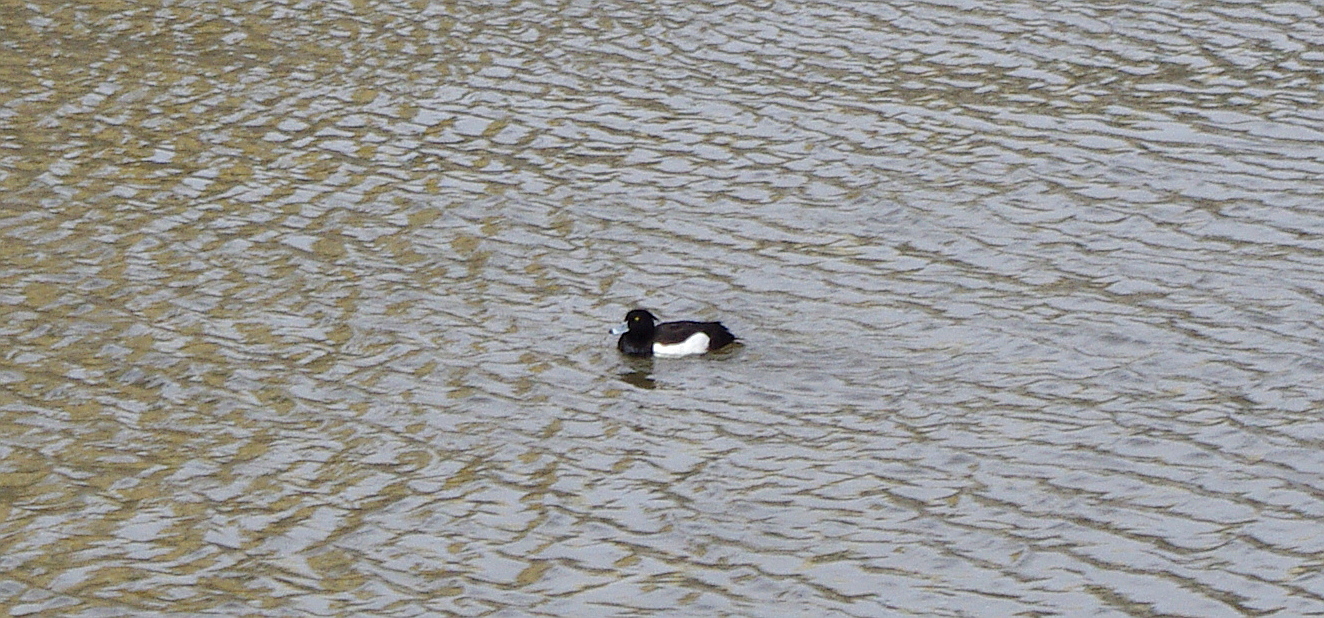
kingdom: Animalia
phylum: Chordata
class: Aves
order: Anseriformes
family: Anatidae
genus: Aythya
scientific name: Aythya fuligula
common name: Tufted duck
